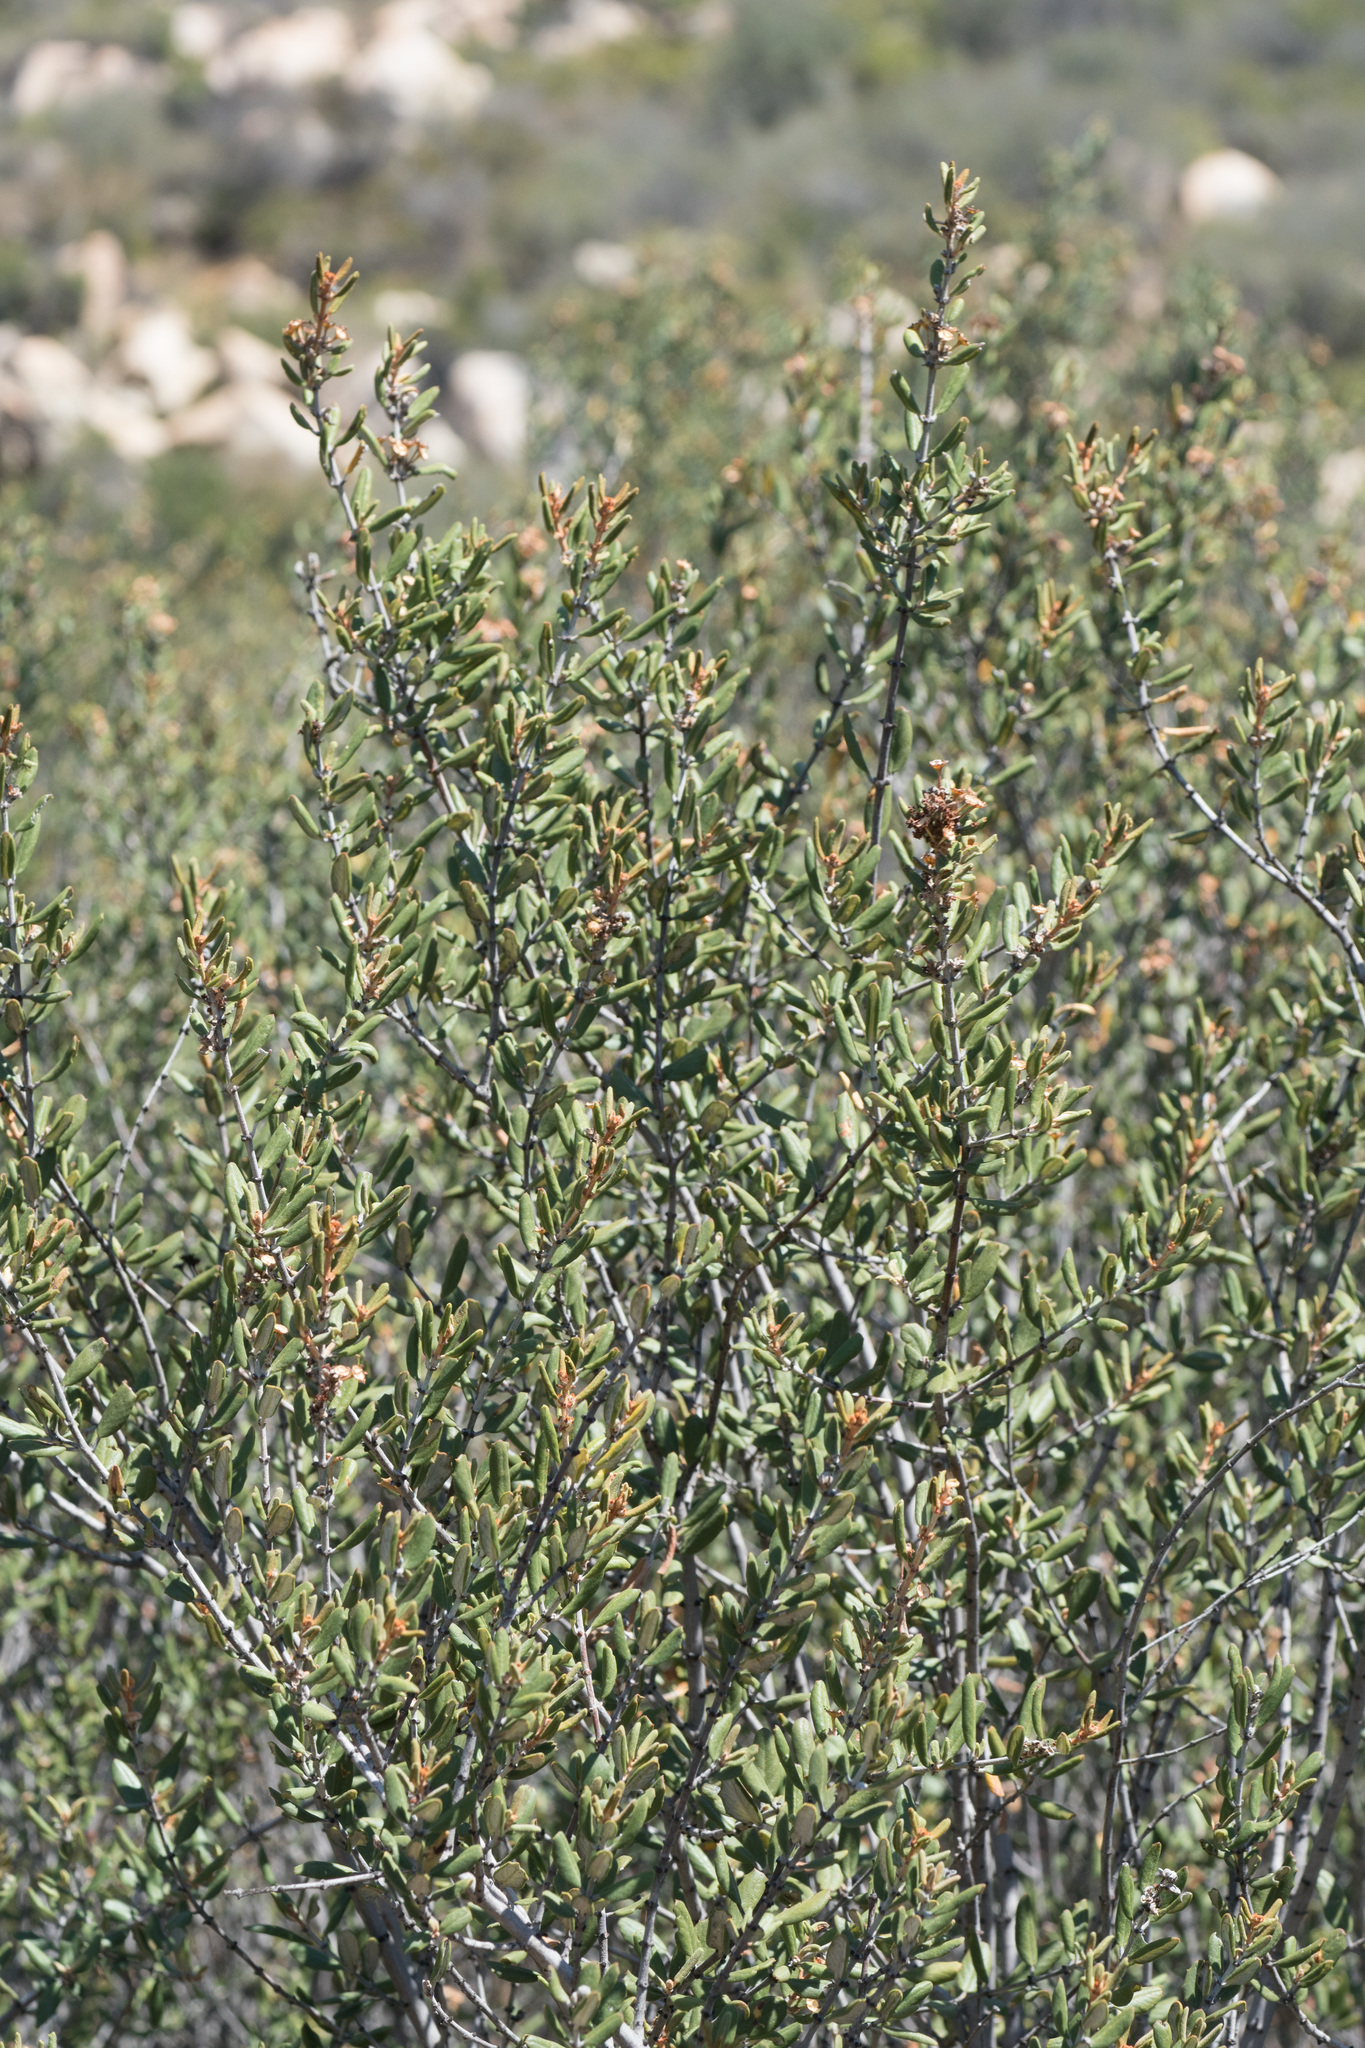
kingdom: Plantae
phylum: Tracheophyta
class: Magnoliopsida
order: Rosales
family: Rhamnaceae
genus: Ceanothus
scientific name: Ceanothus crassifolius
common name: Hoaryleaf ceanothus
